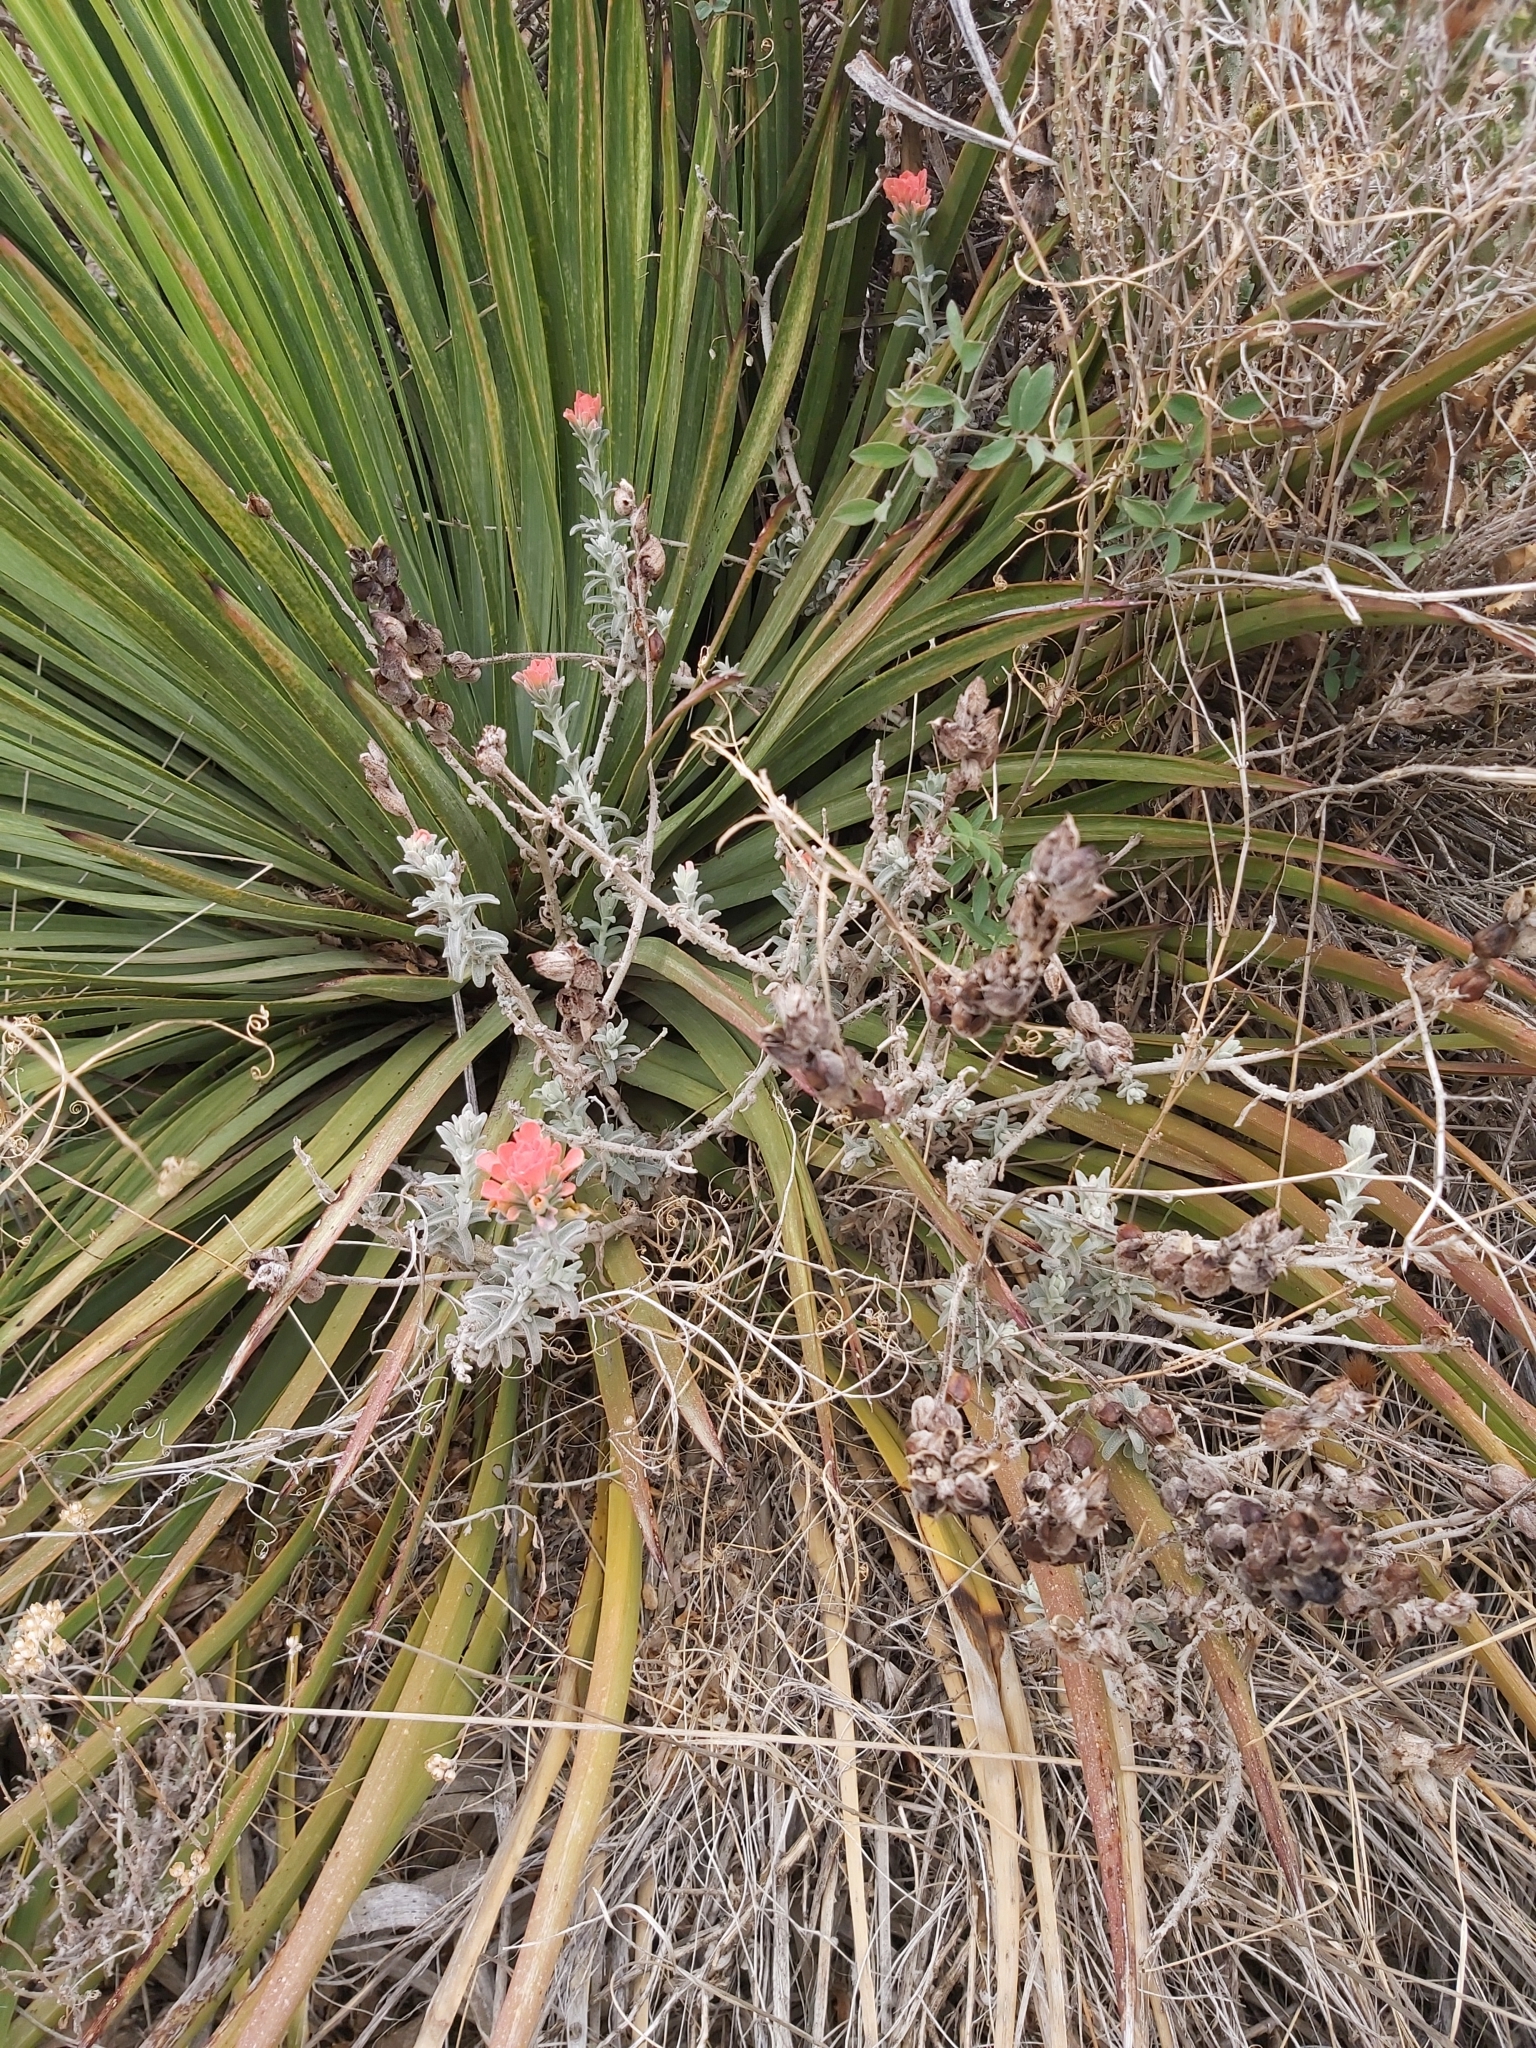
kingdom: Plantae
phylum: Tracheophyta
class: Magnoliopsida
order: Lamiales
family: Orobanchaceae
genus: Castilleja
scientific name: Castilleja foliolosa
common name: Woolly indian paintbrush
